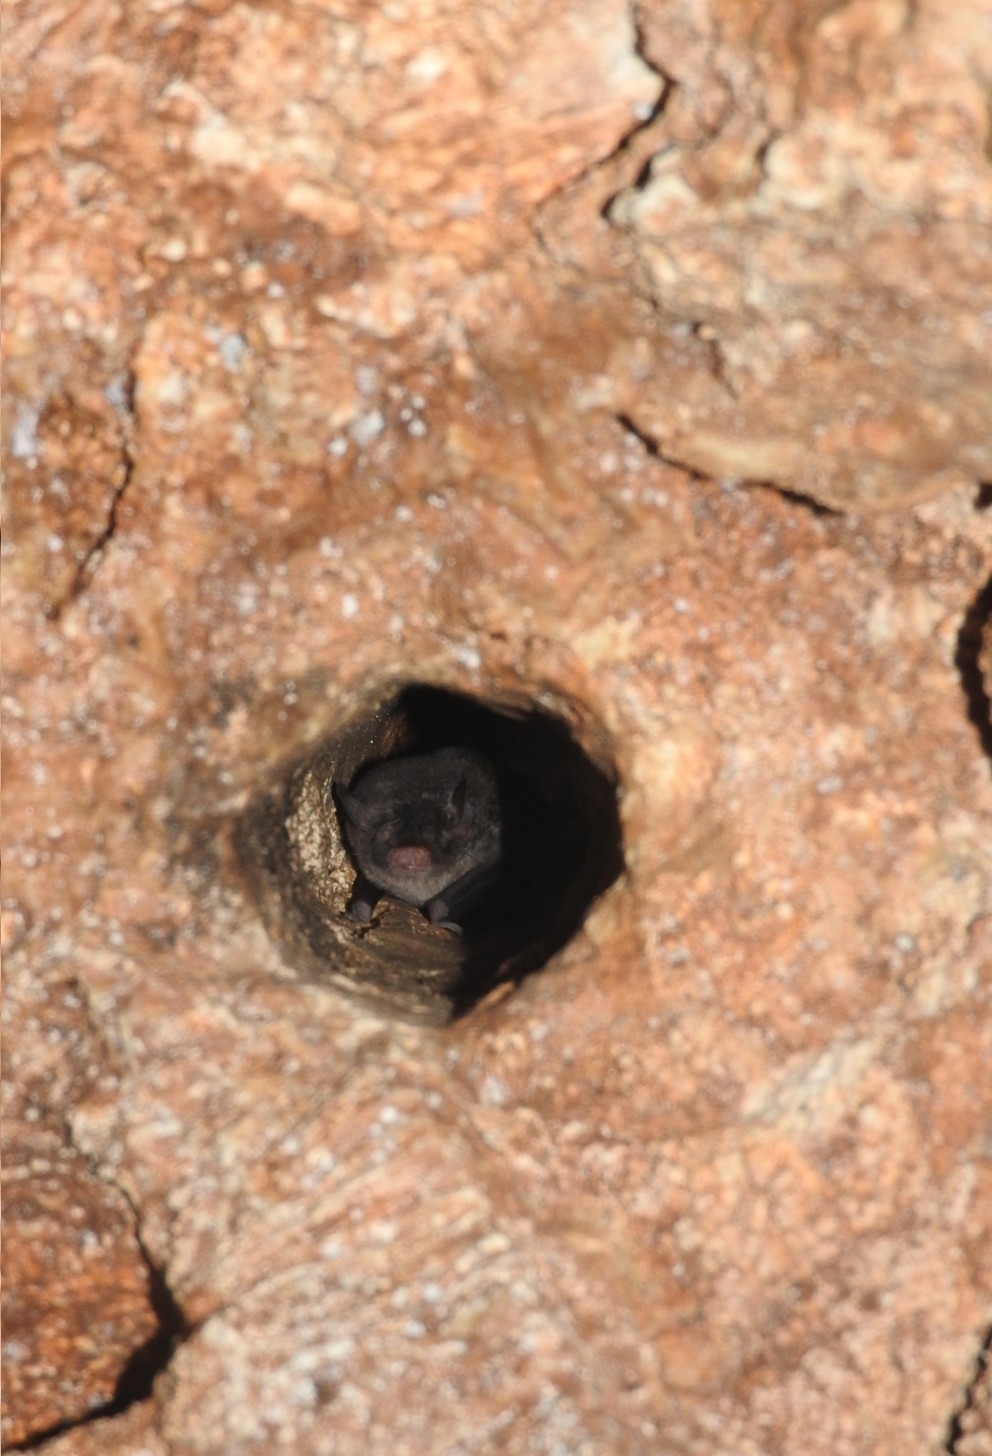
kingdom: Animalia
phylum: Chordata
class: Mammalia
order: Chiroptera
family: Vespertilionidae
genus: Myotis
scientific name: Myotis pilosatibialis
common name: Northern hairy-legged myotis
